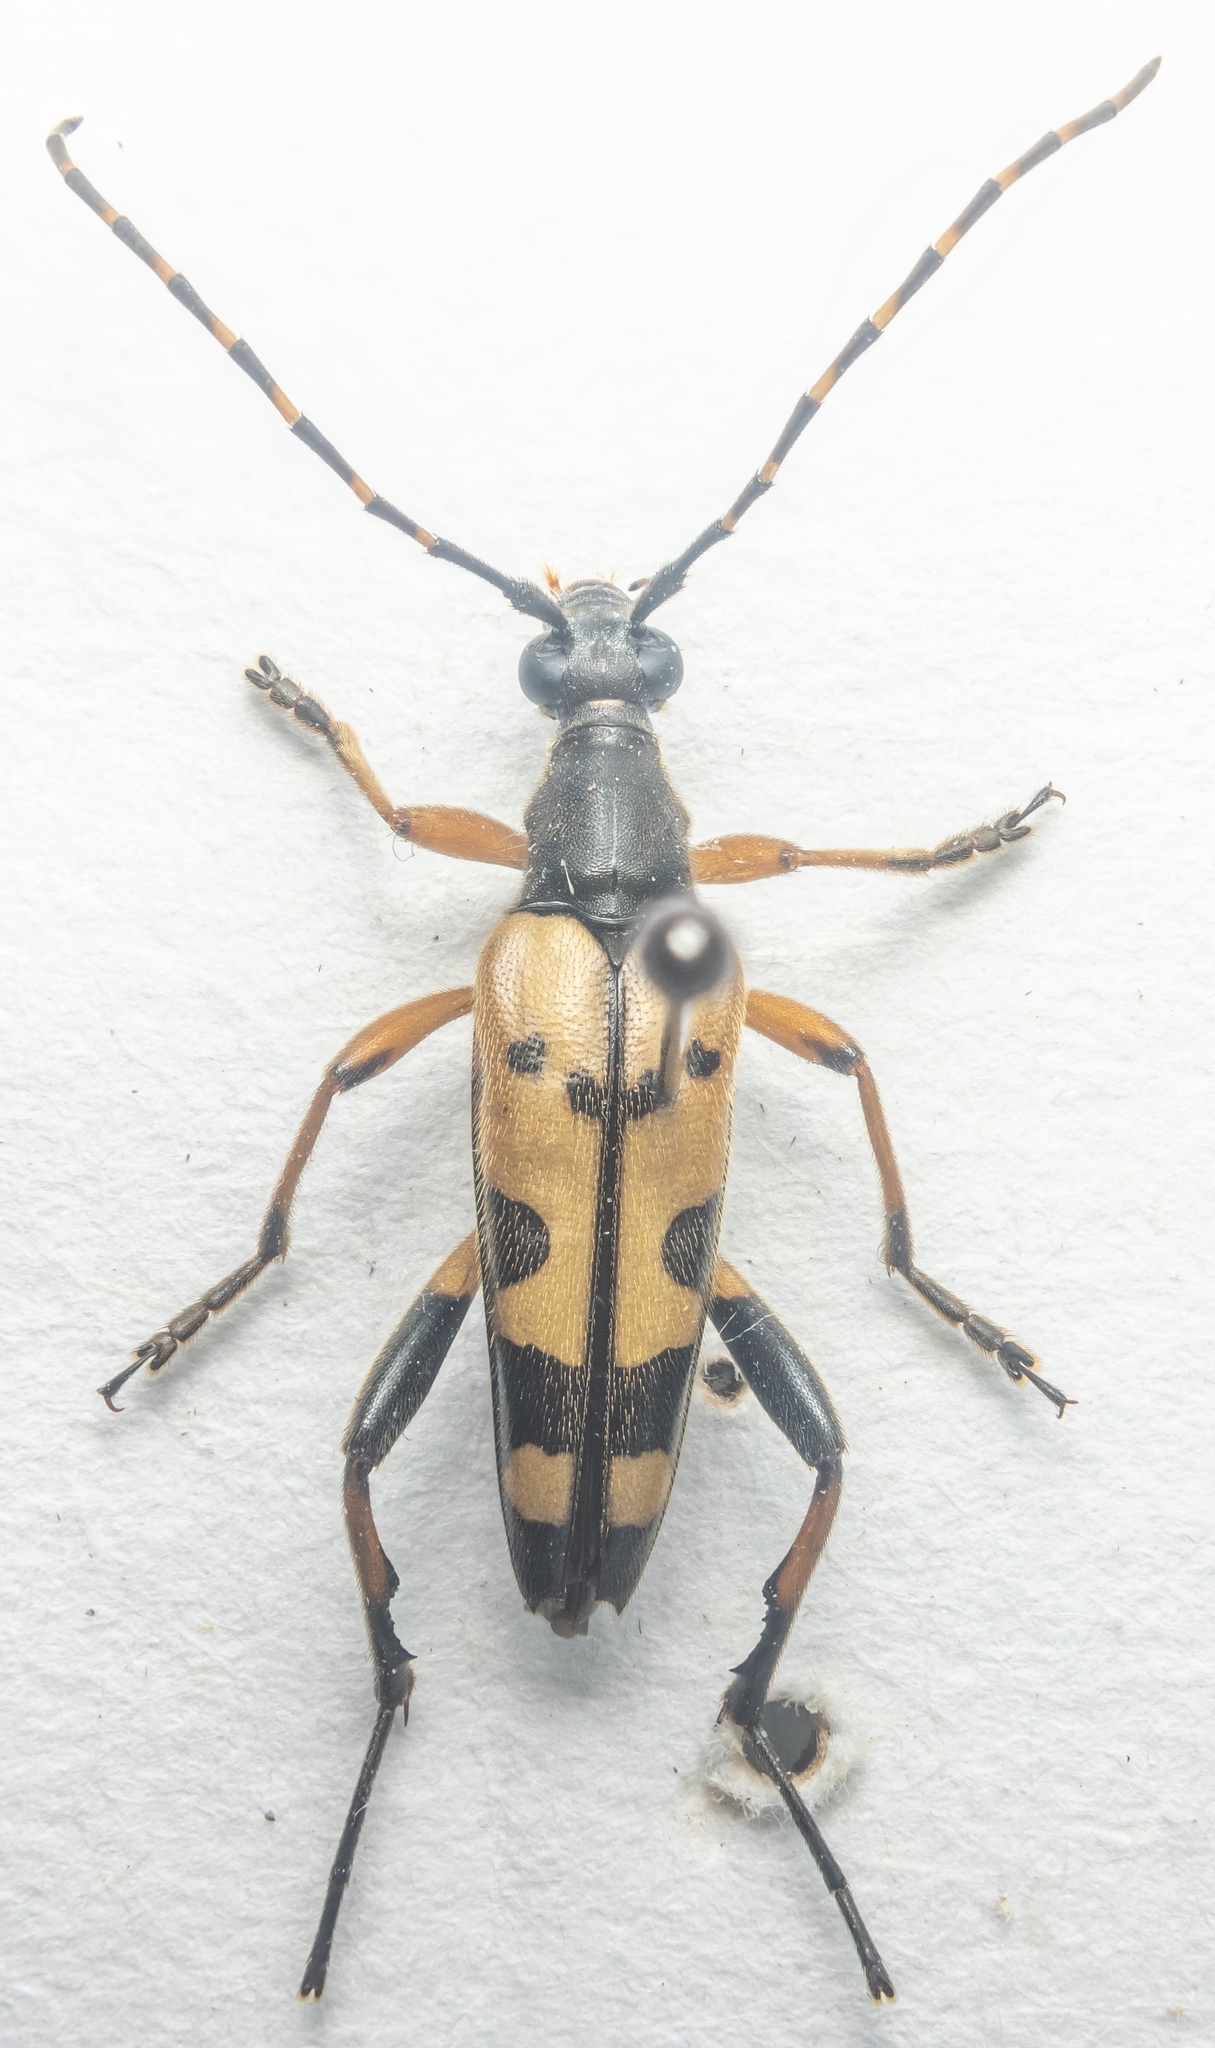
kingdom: Animalia
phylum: Arthropoda
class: Insecta
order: Coleoptera
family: Cerambycidae
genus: Rutpela
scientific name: Rutpela maculata
